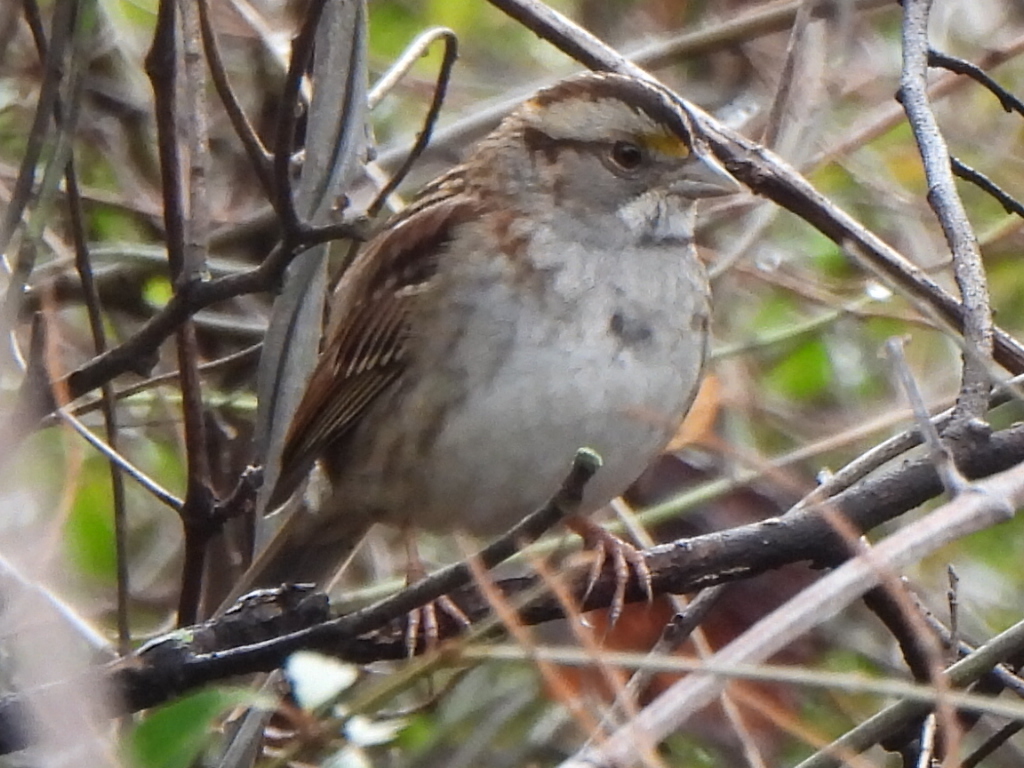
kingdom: Animalia
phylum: Chordata
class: Aves
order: Passeriformes
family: Passerellidae
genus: Zonotrichia
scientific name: Zonotrichia albicollis
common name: White-throated sparrow
